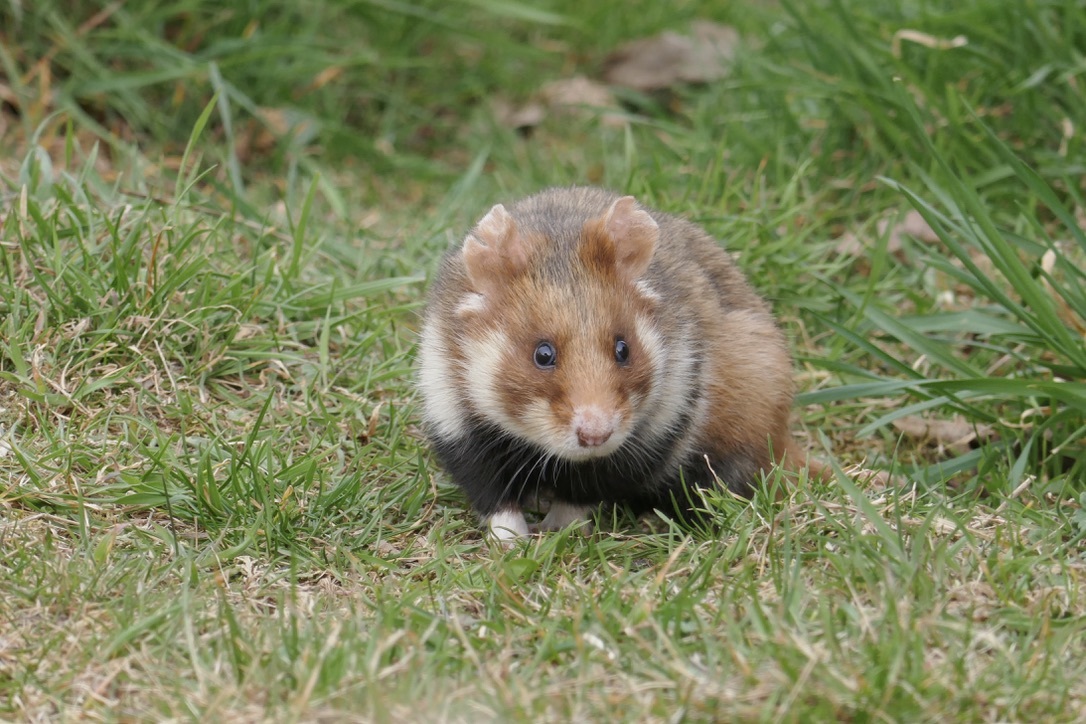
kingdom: Animalia
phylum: Chordata
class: Mammalia
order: Rodentia
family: Cricetidae
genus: Cricetus
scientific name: Cricetus cricetus
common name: Common hamster
